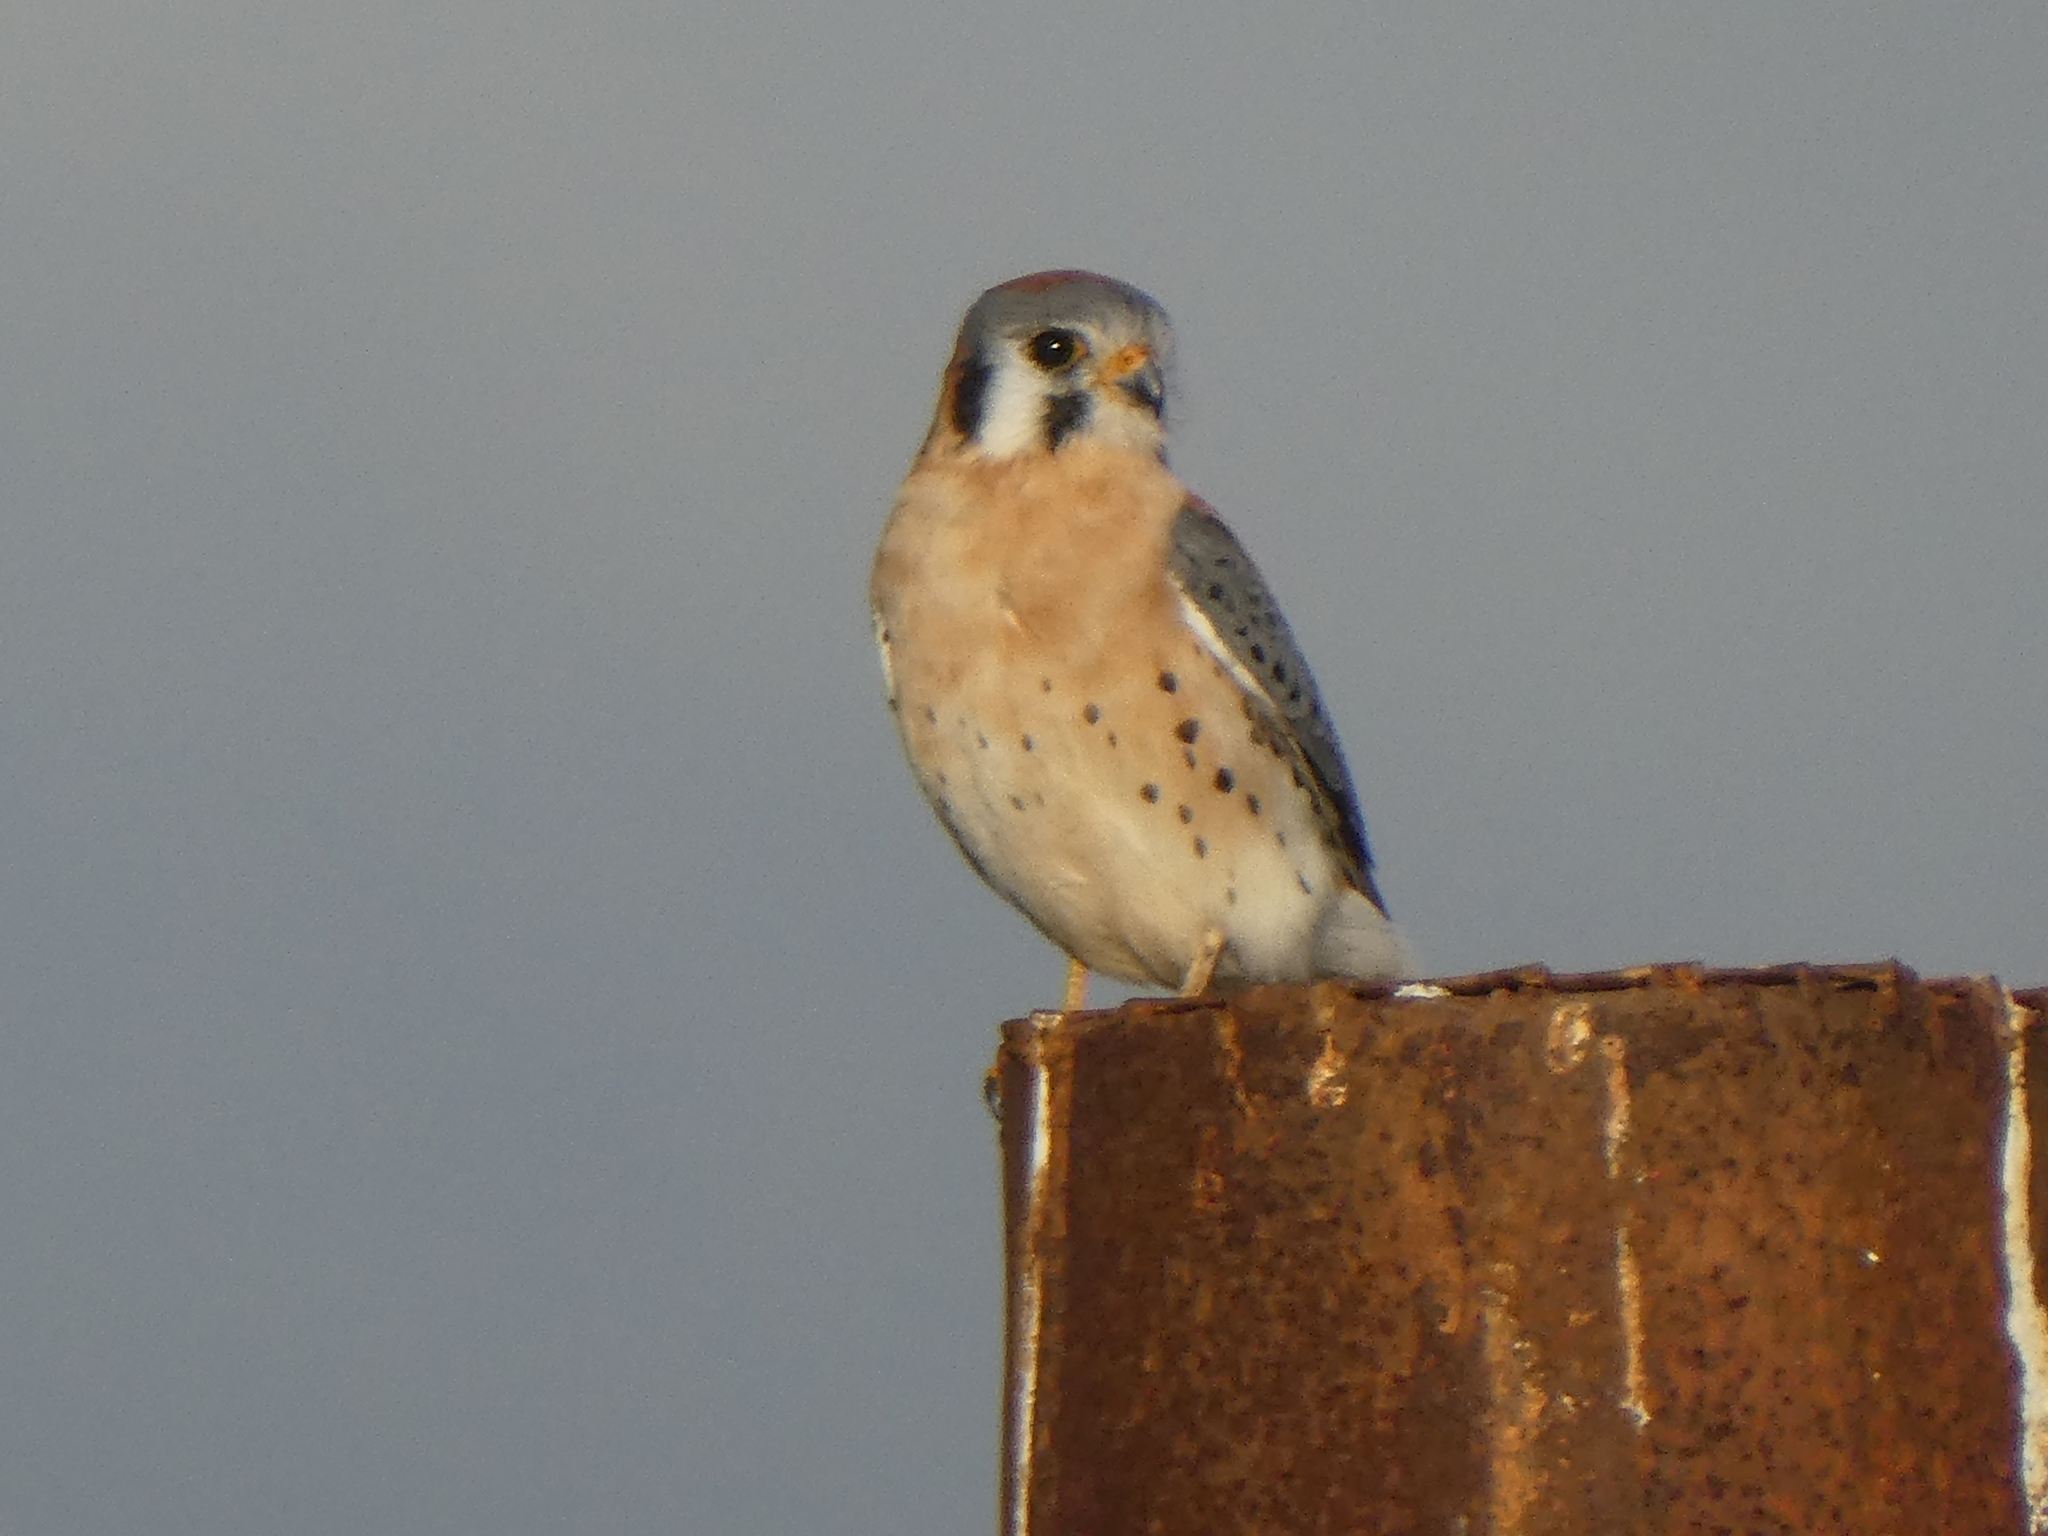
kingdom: Animalia
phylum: Chordata
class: Aves
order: Falconiformes
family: Falconidae
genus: Falco
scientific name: Falco sparverius
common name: American kestrel
